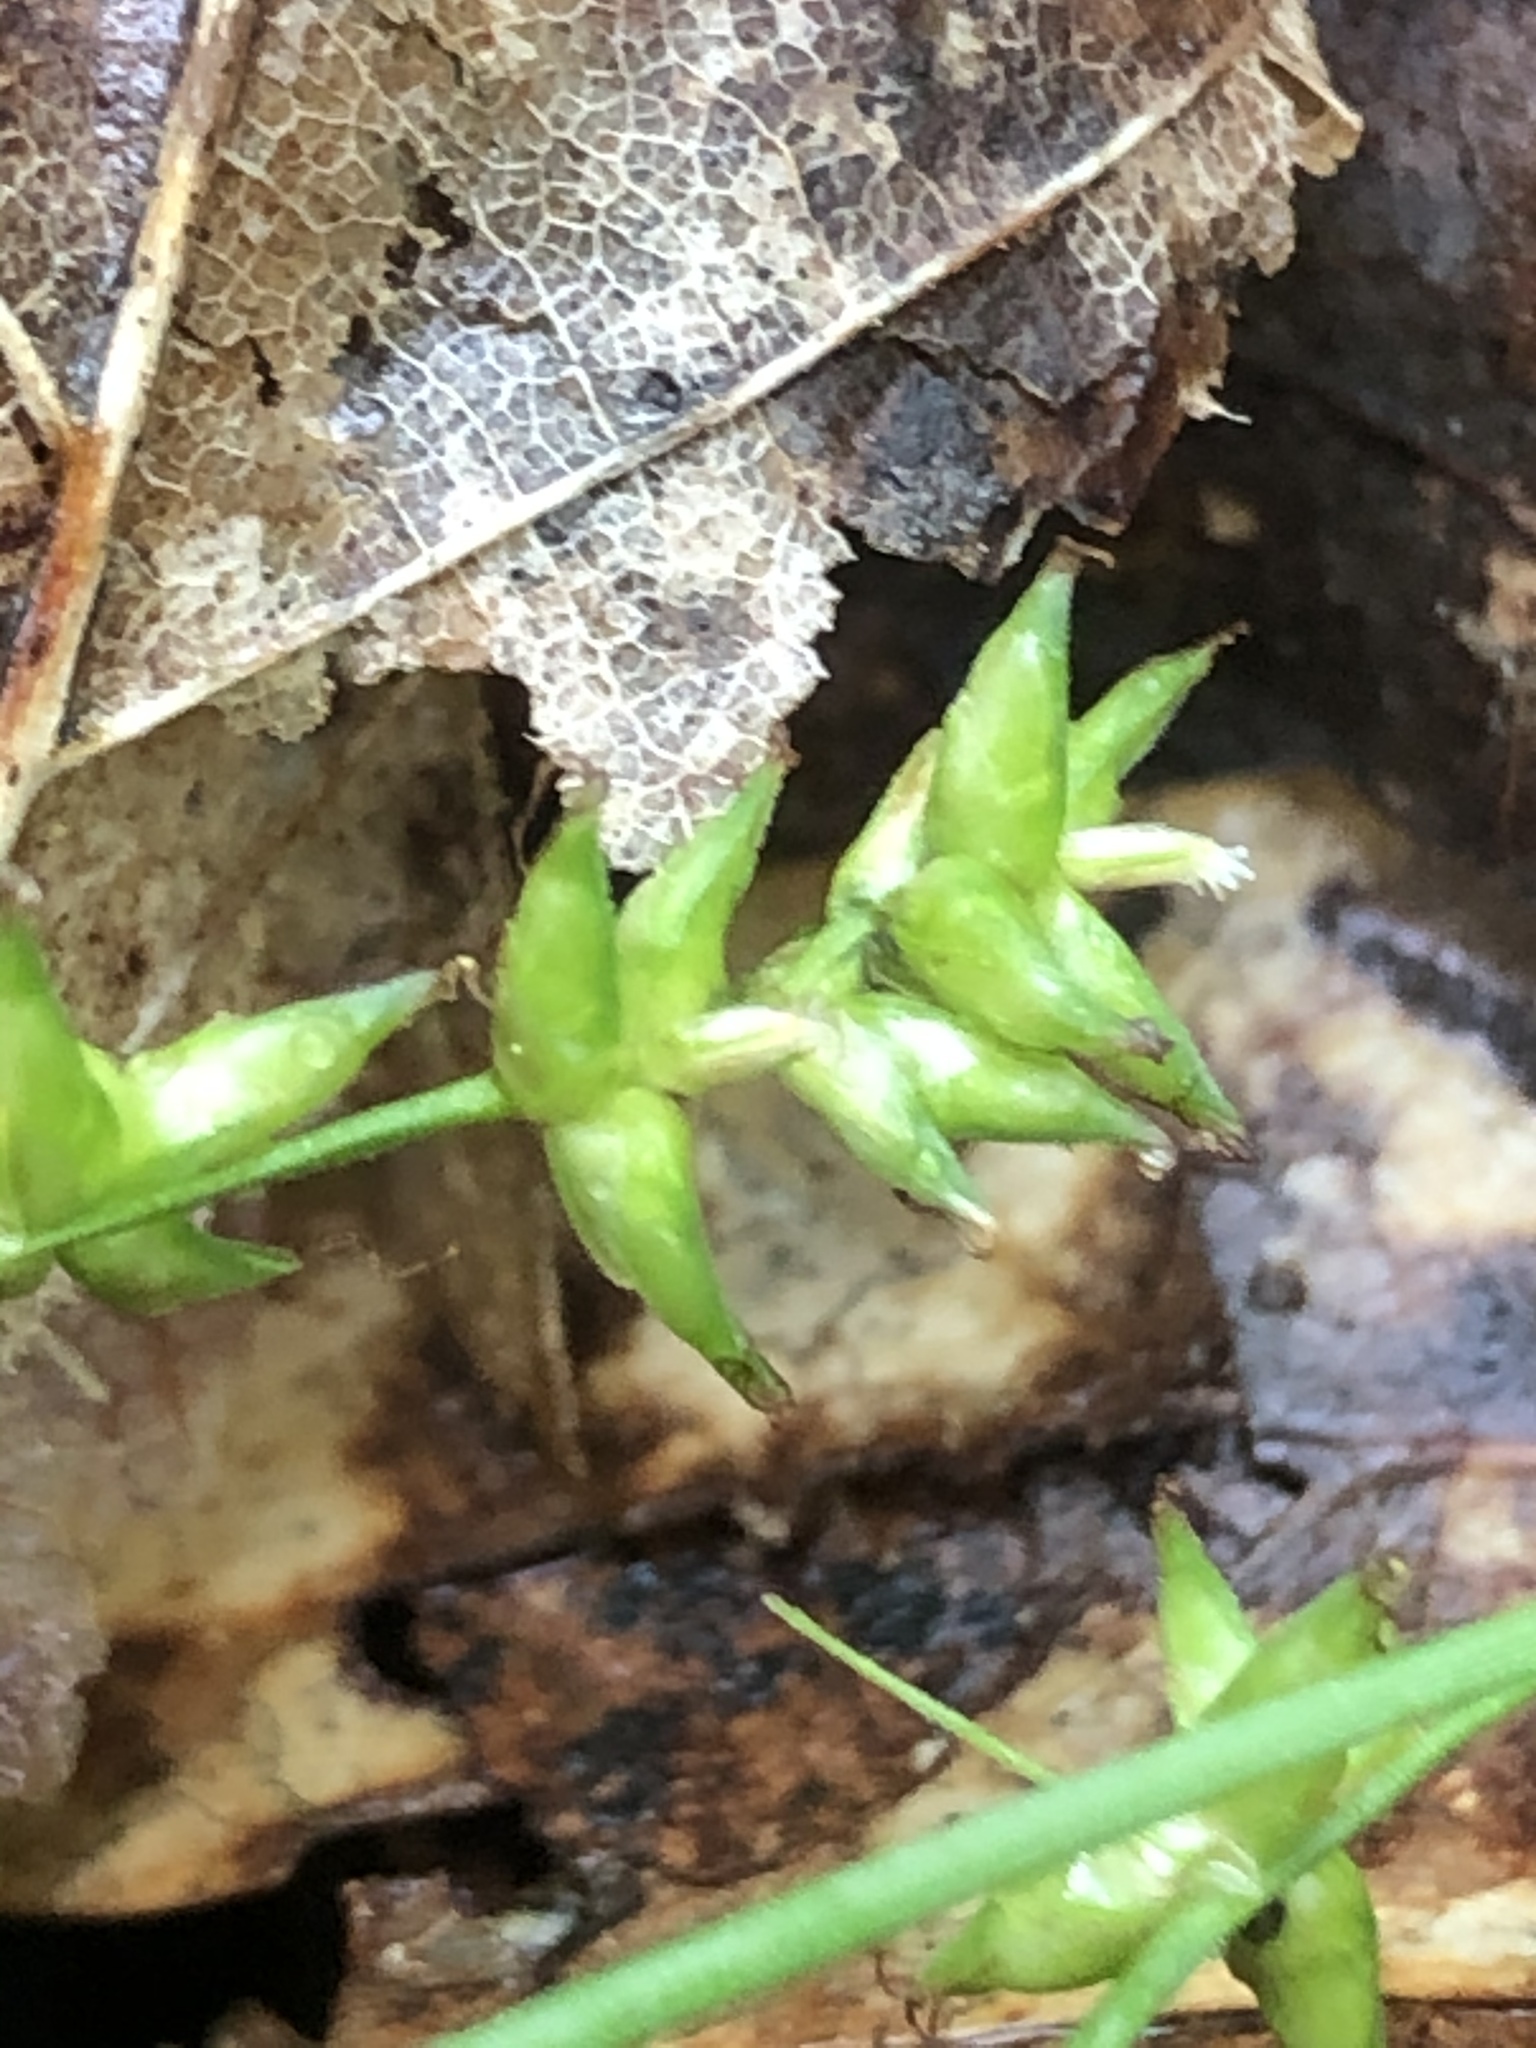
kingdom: Plantae
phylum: Tracheophyta
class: Liliopsida
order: Poales
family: Cyperaceae
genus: Carex
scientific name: Carex radiata
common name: Eastern star sedge
